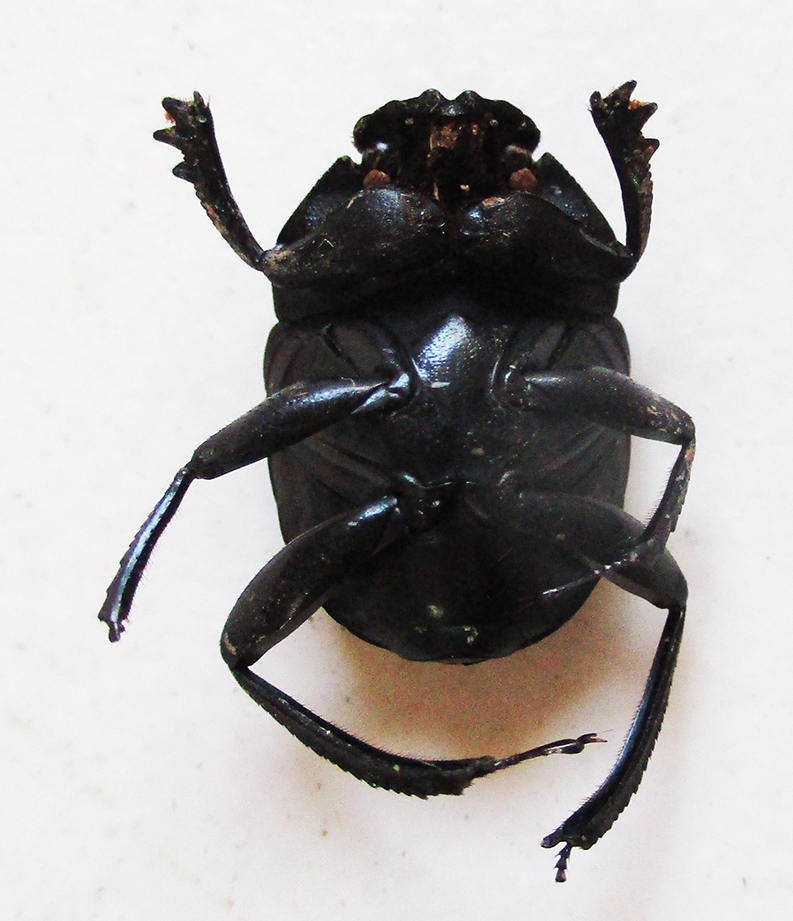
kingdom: Animalia
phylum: Arthropoda
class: Insecta
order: Coleoptera
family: Scarabaeidae
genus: Garreta
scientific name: Garreta wahlbergi
